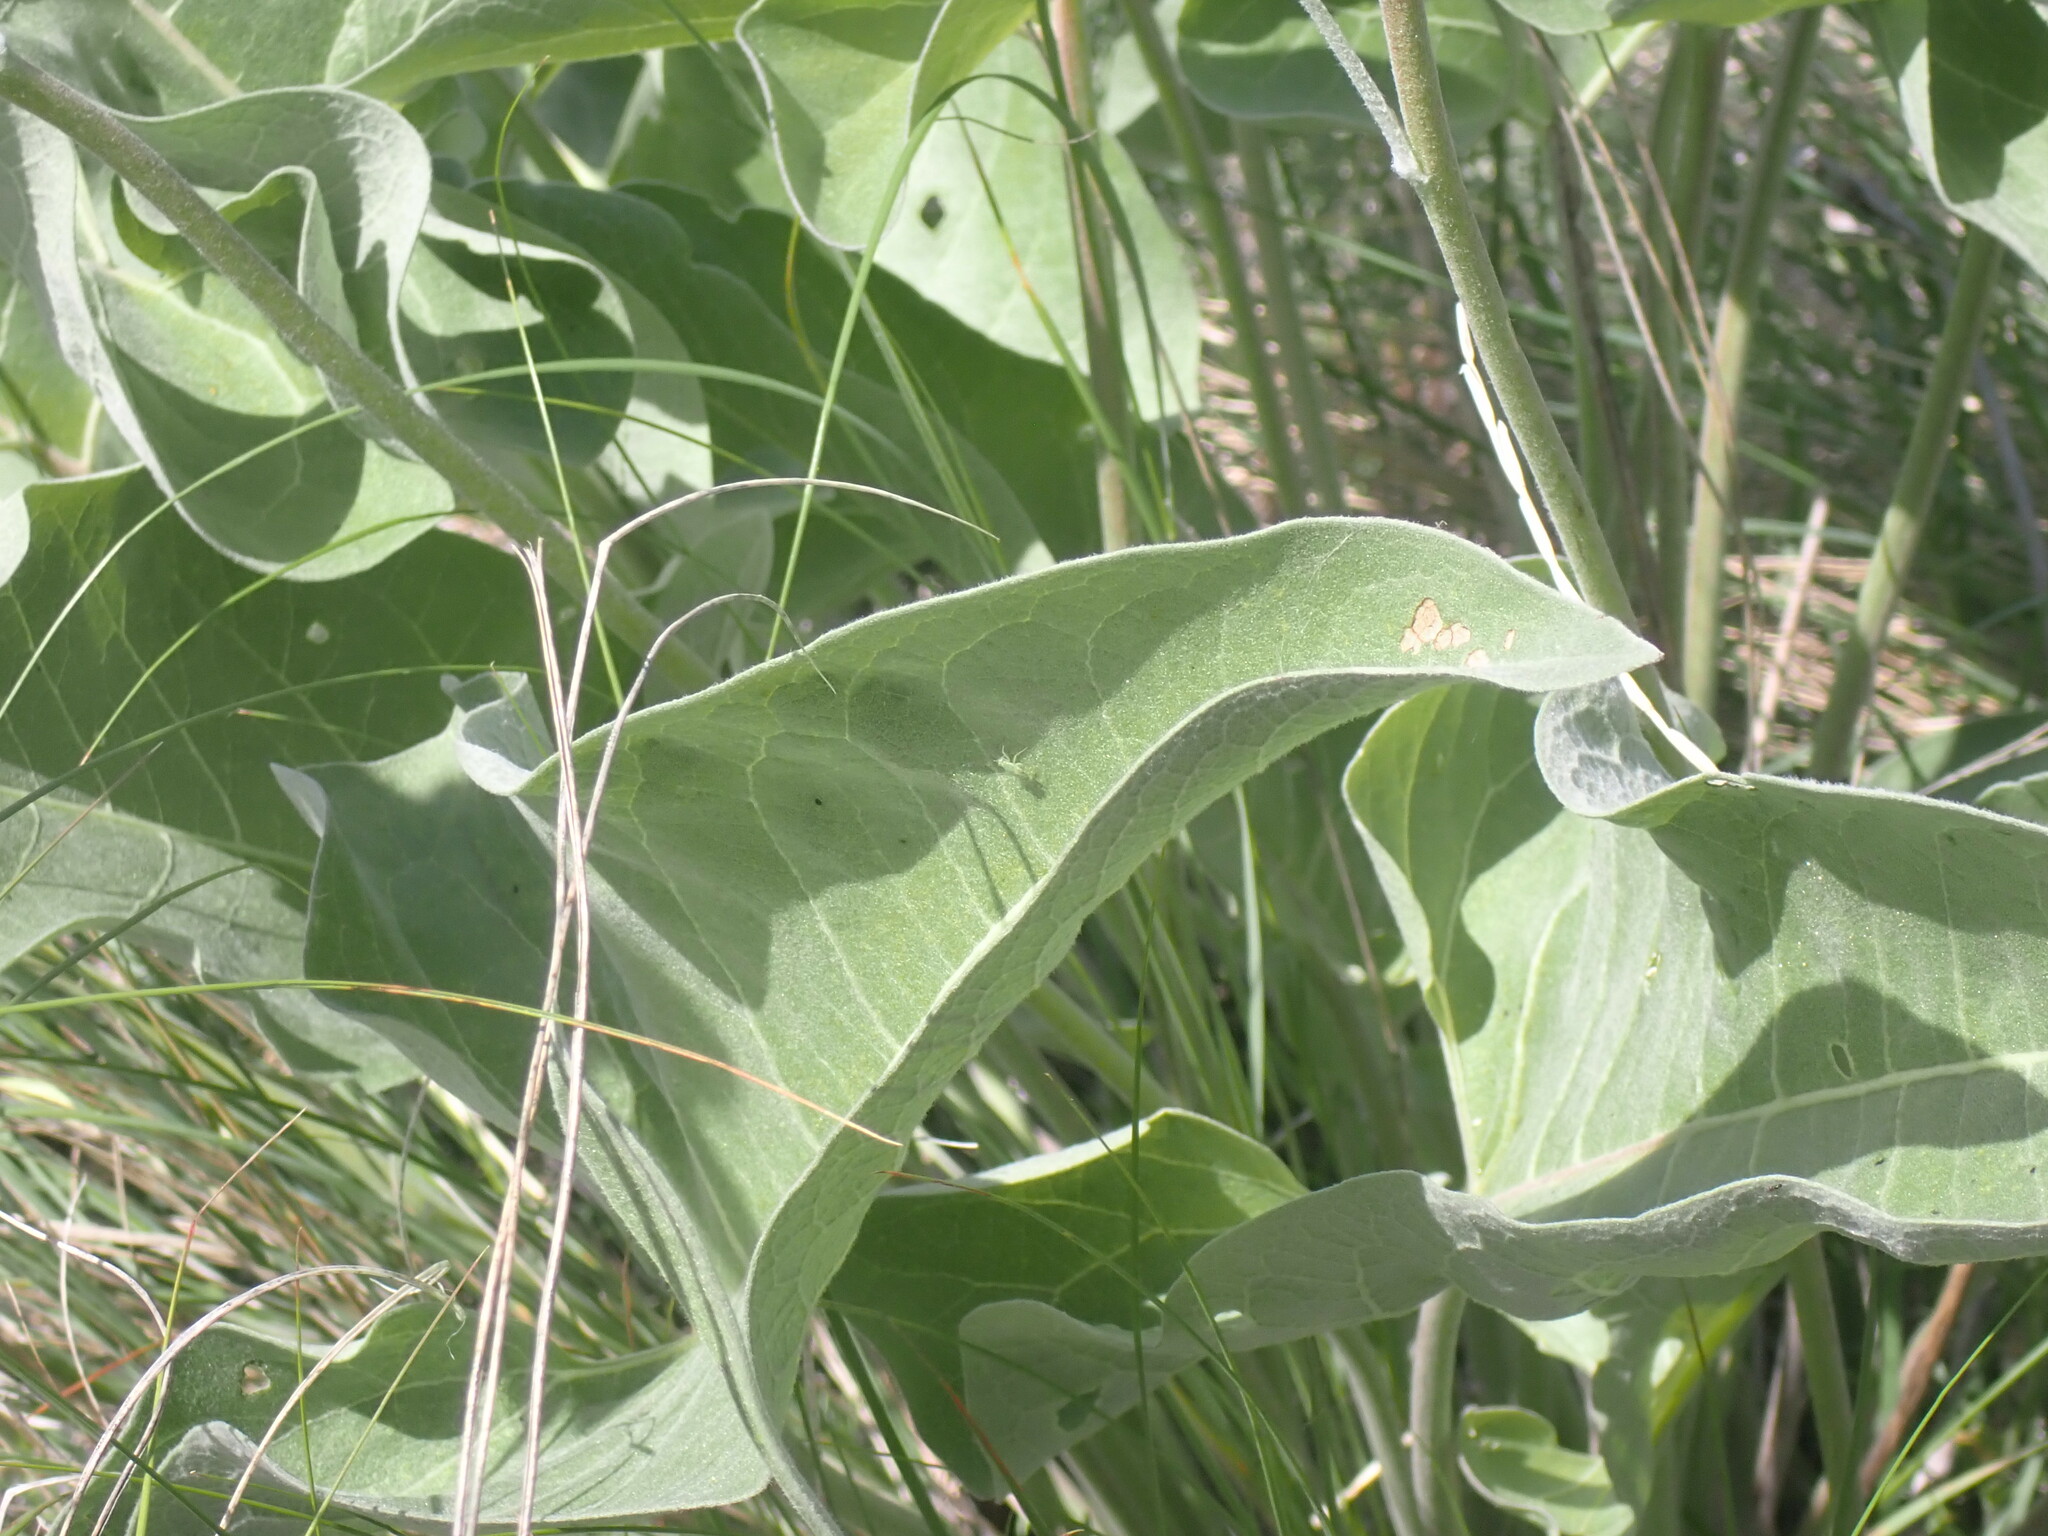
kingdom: Plantae
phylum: Tracheophyta
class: Magnoliopsida
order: Asterales
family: Asteraceae
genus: Wyethia
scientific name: Wyethia sagittata
